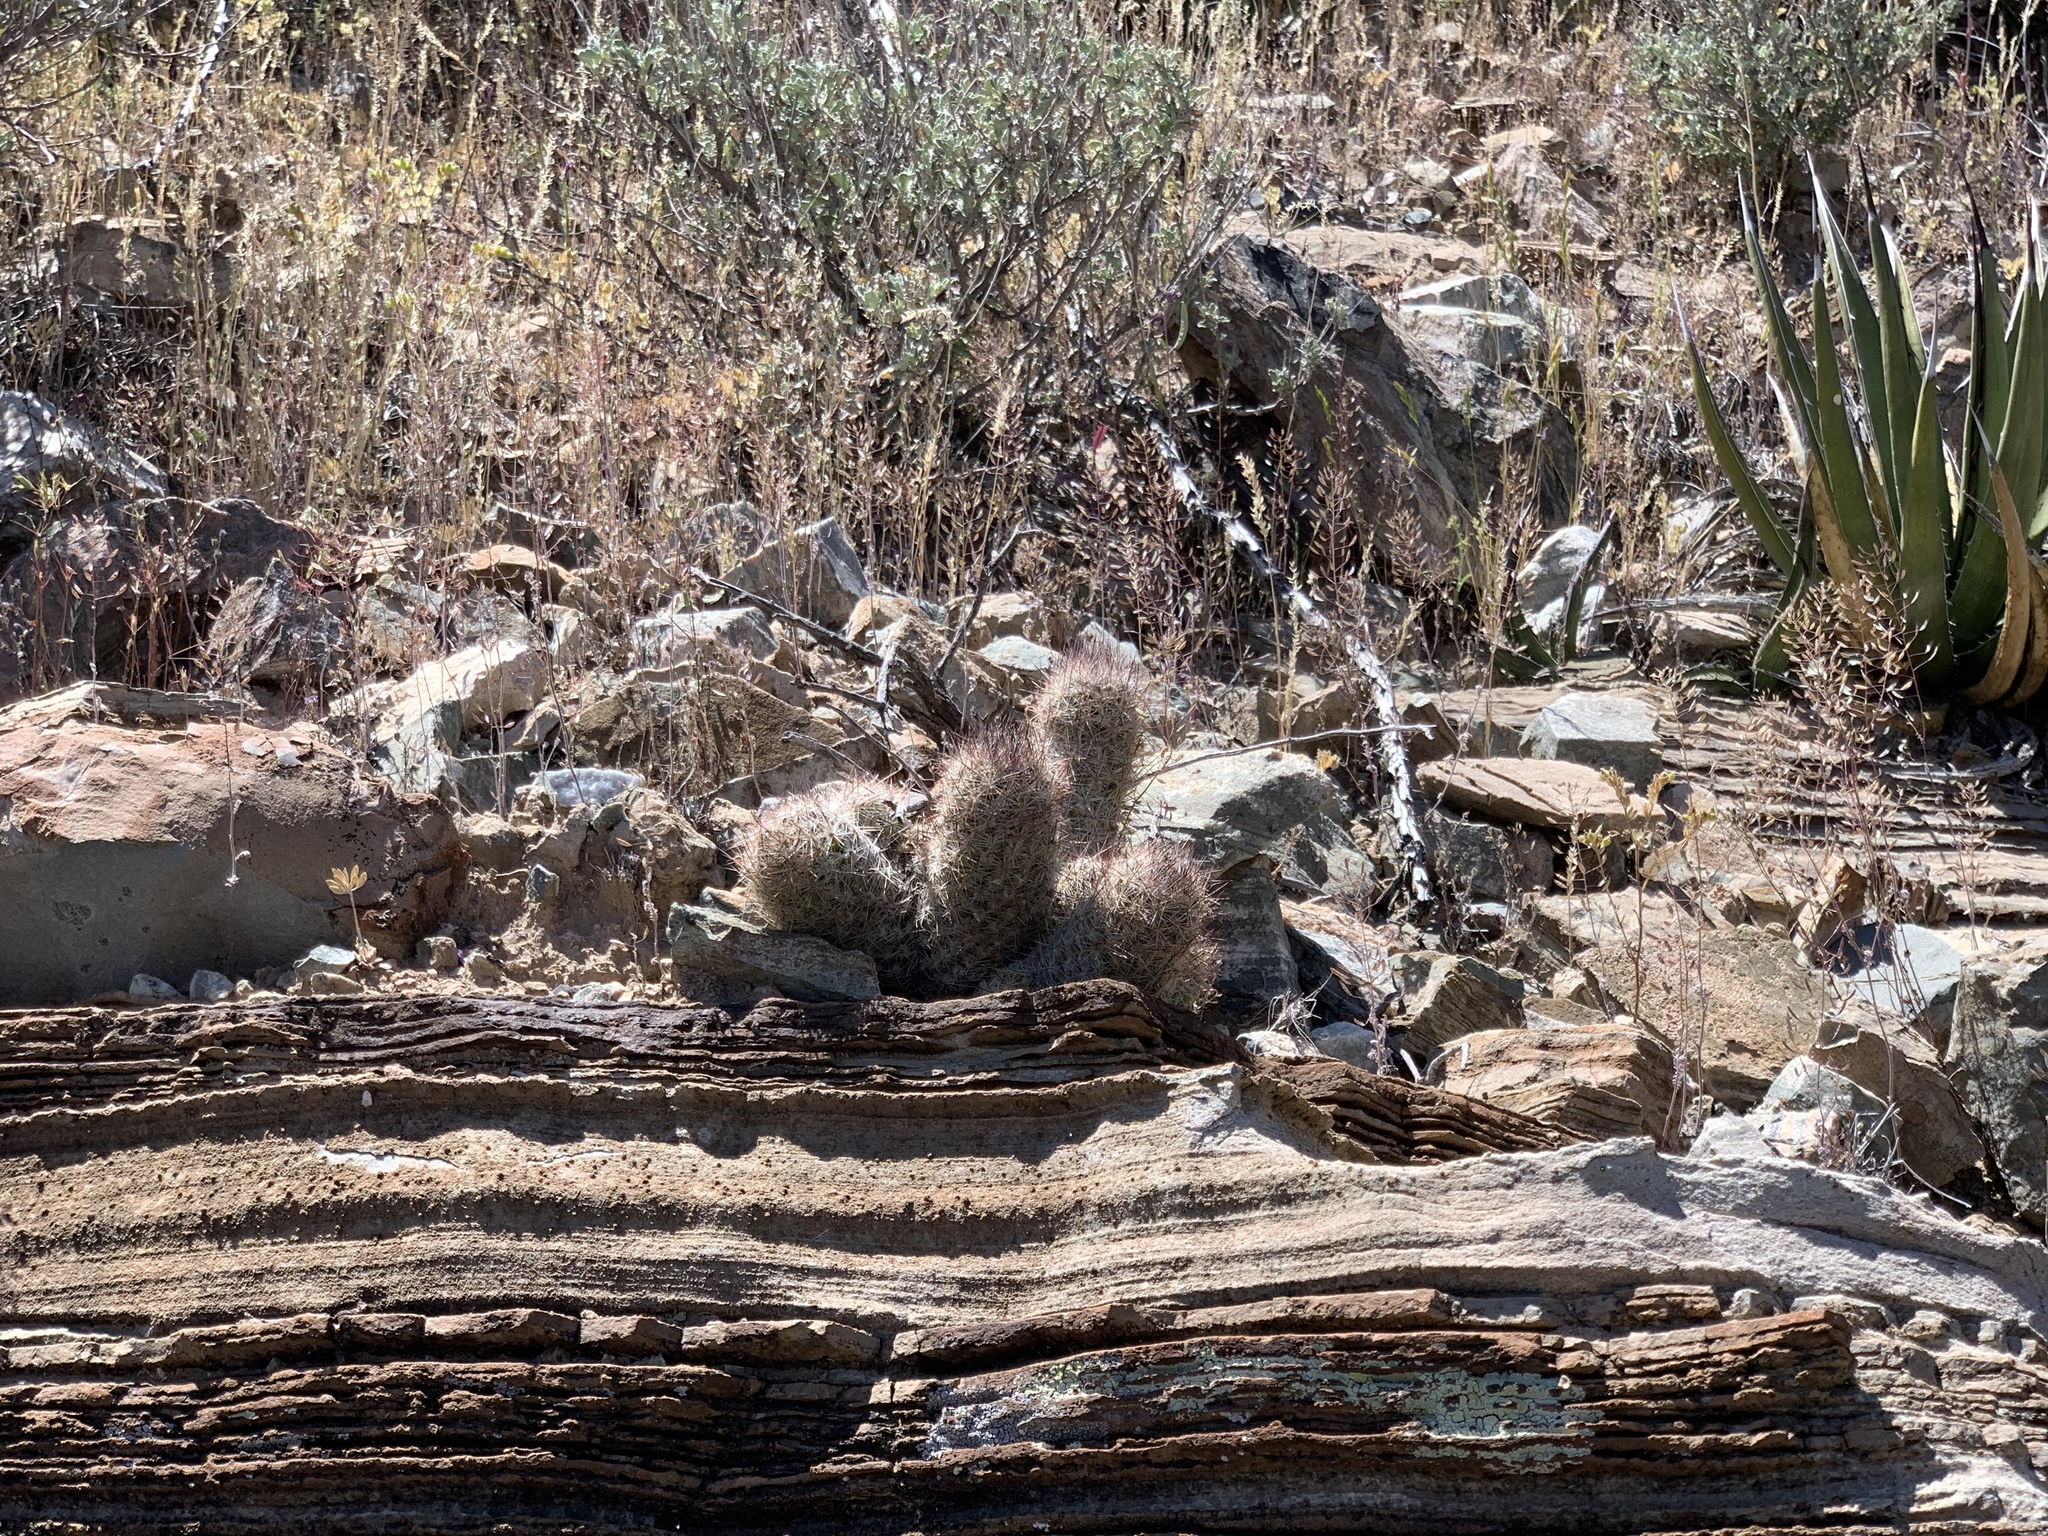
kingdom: Plantae
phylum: Tracheophyta
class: Magnoliopsida
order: Caryophyllales
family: Cactaceae
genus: Pelecyphora
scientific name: Pelecyphora tuberculosa
